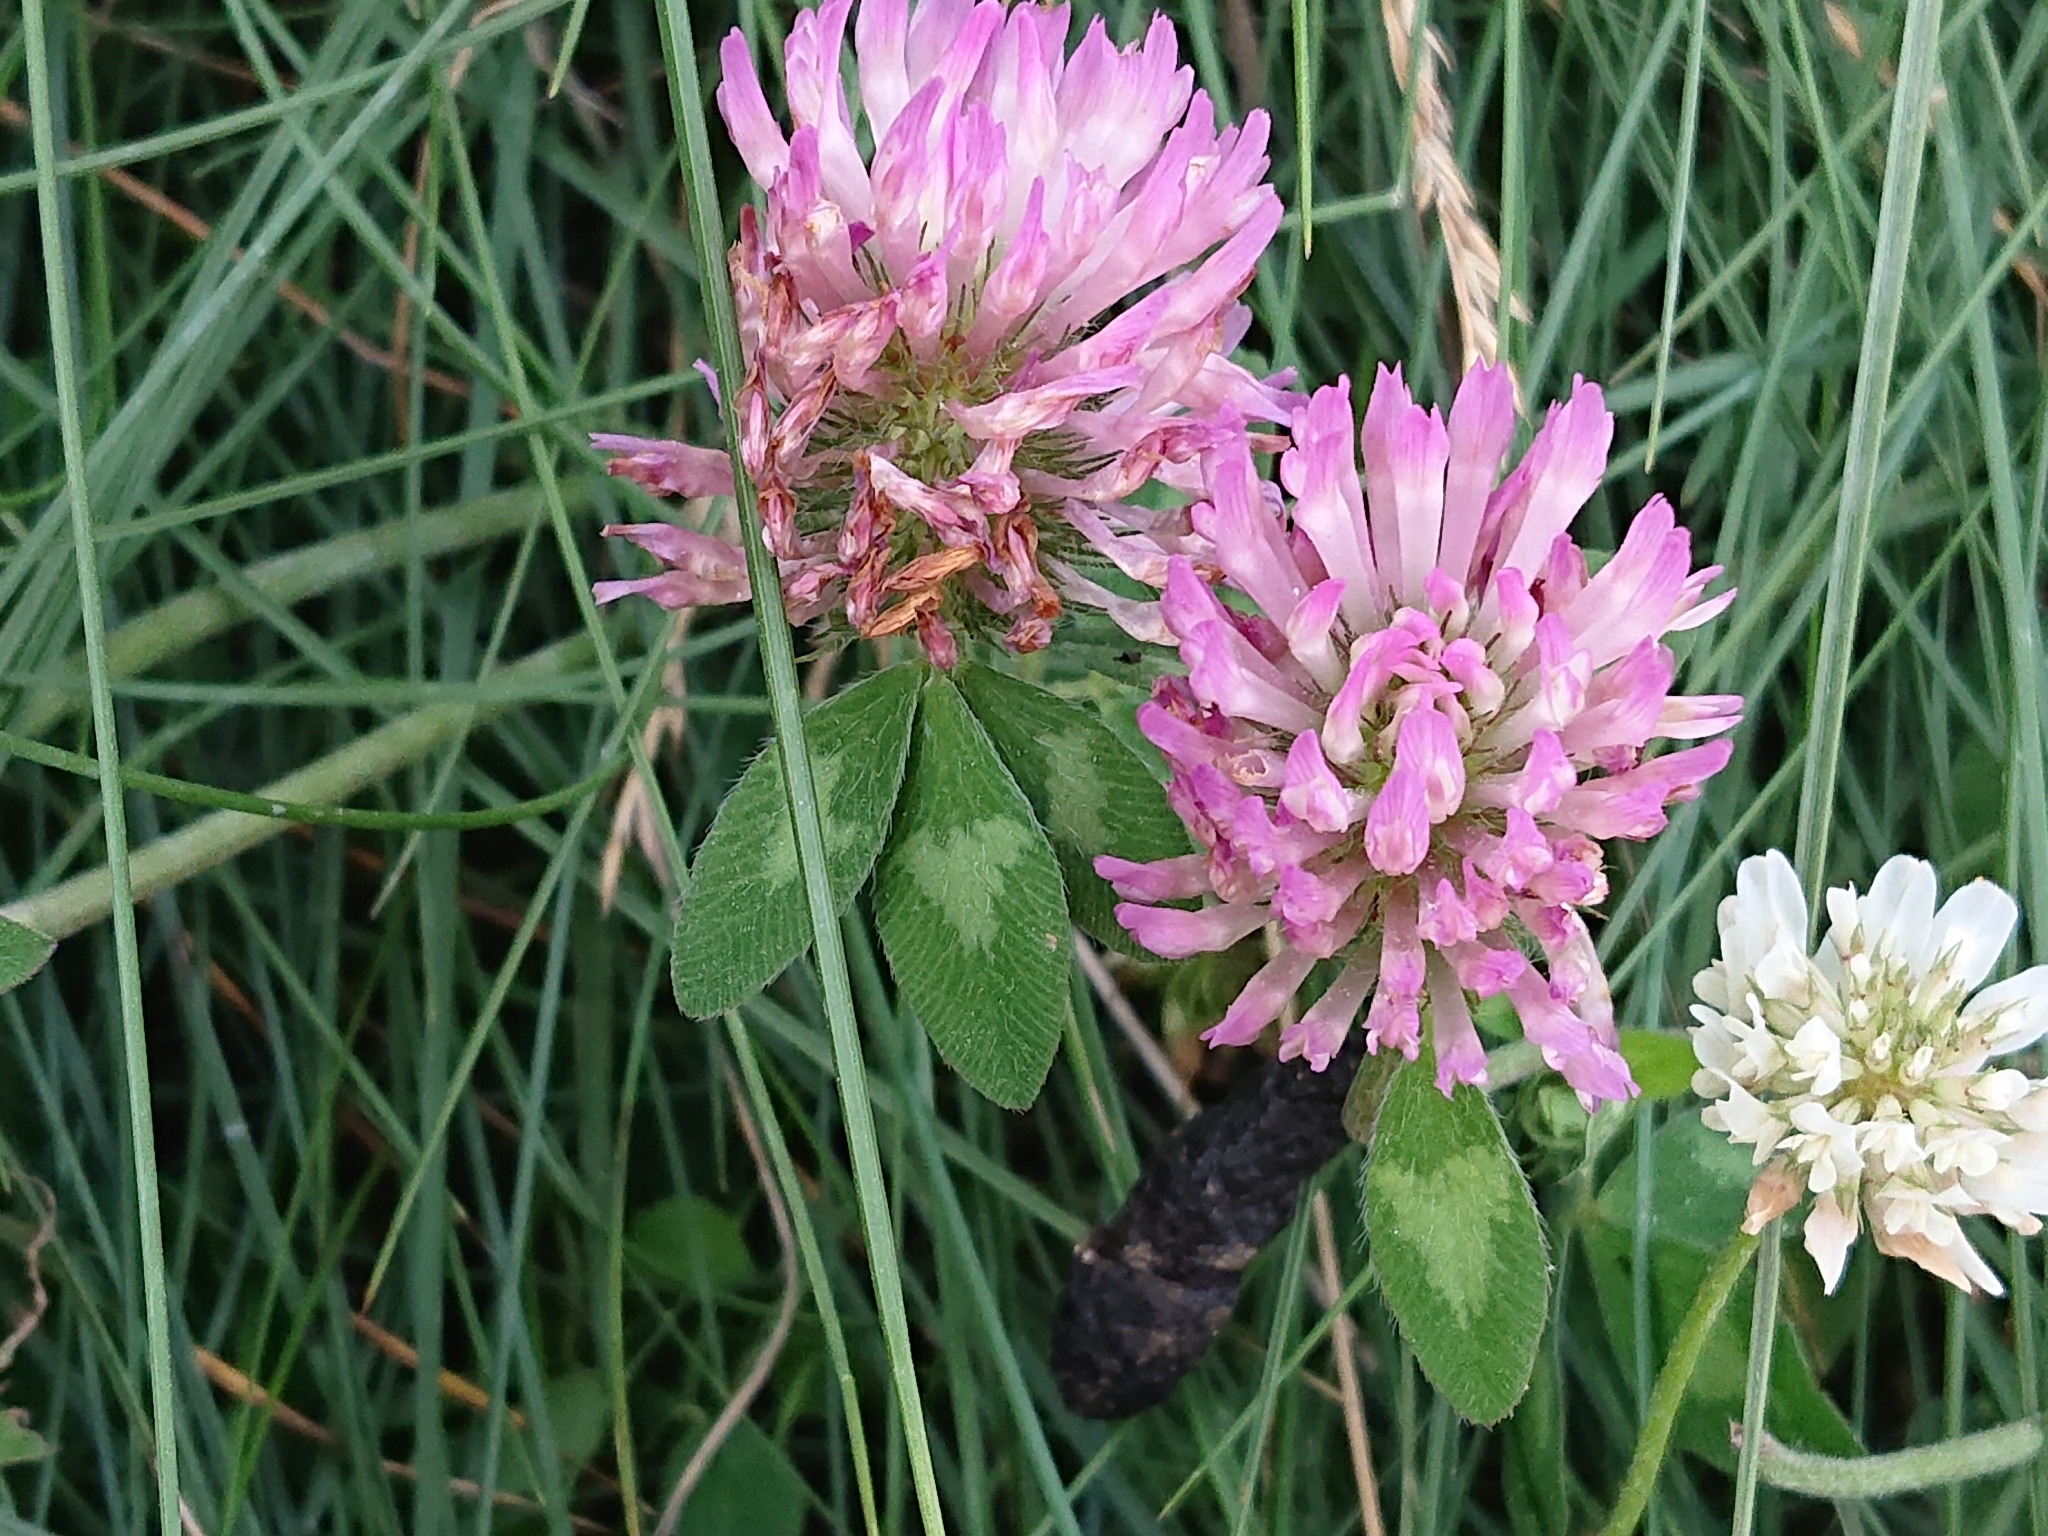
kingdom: Plantae
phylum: Tracheophyta
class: Magnoliopsida
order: Fabales
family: Fabaceae
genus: Trifolium
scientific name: Trifolium pratense
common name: Red clover
